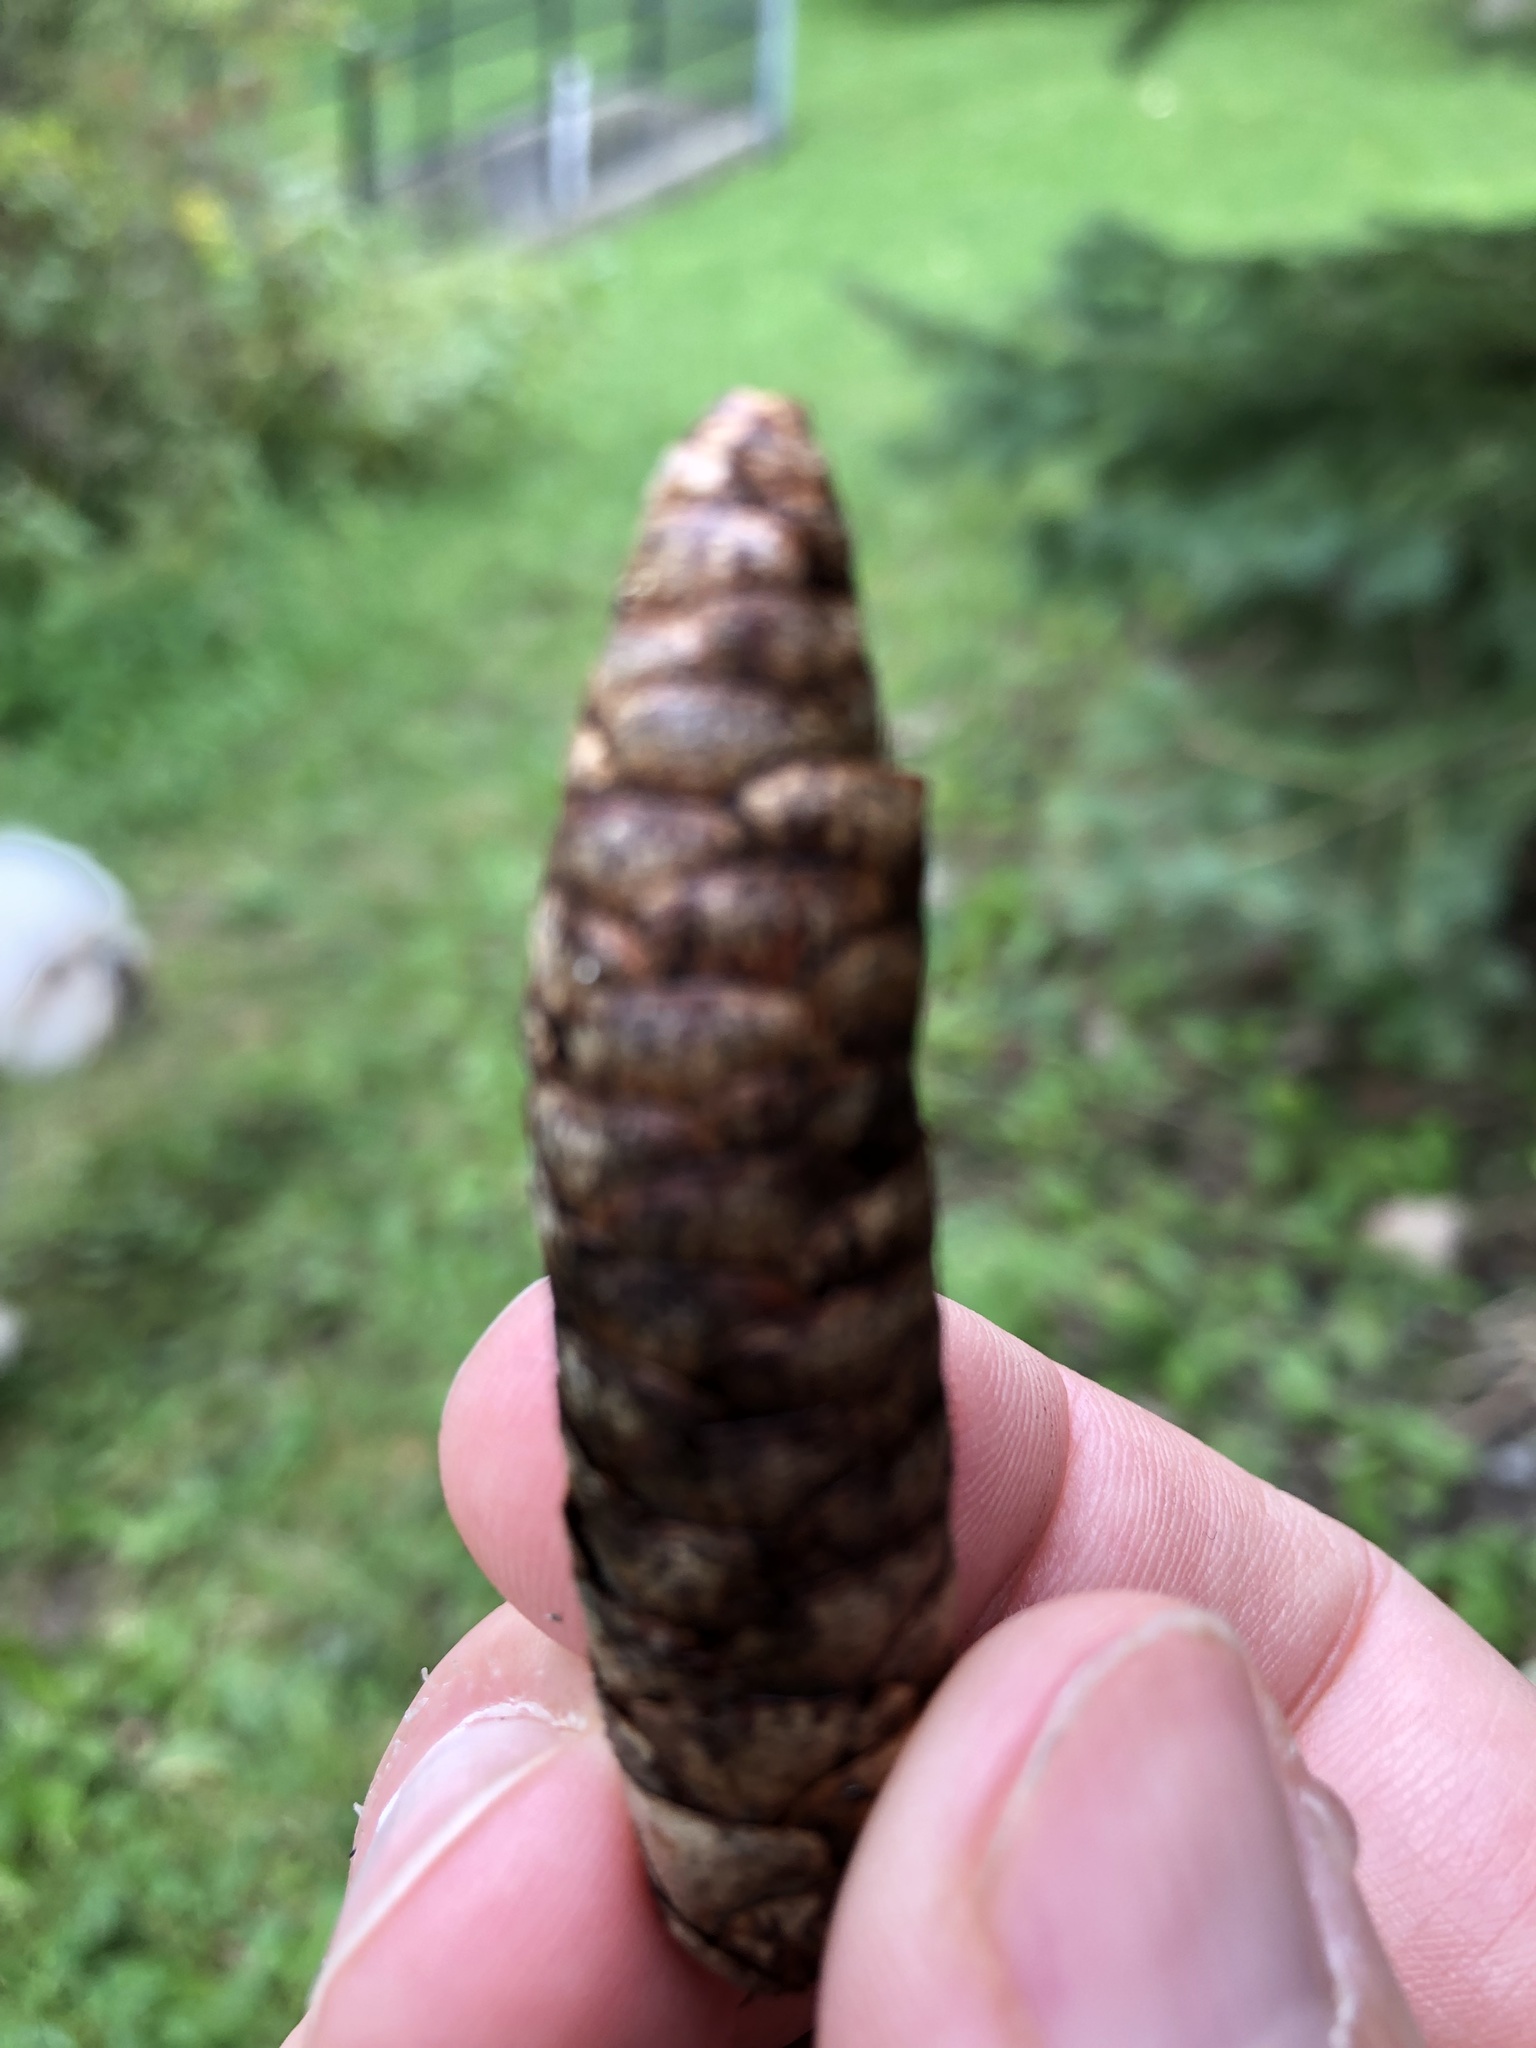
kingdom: Plantae
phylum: Tracheophyta
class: Pinopsida
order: Pinales
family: Pinaceae
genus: Picea
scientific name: Picea glauca
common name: White spruce
